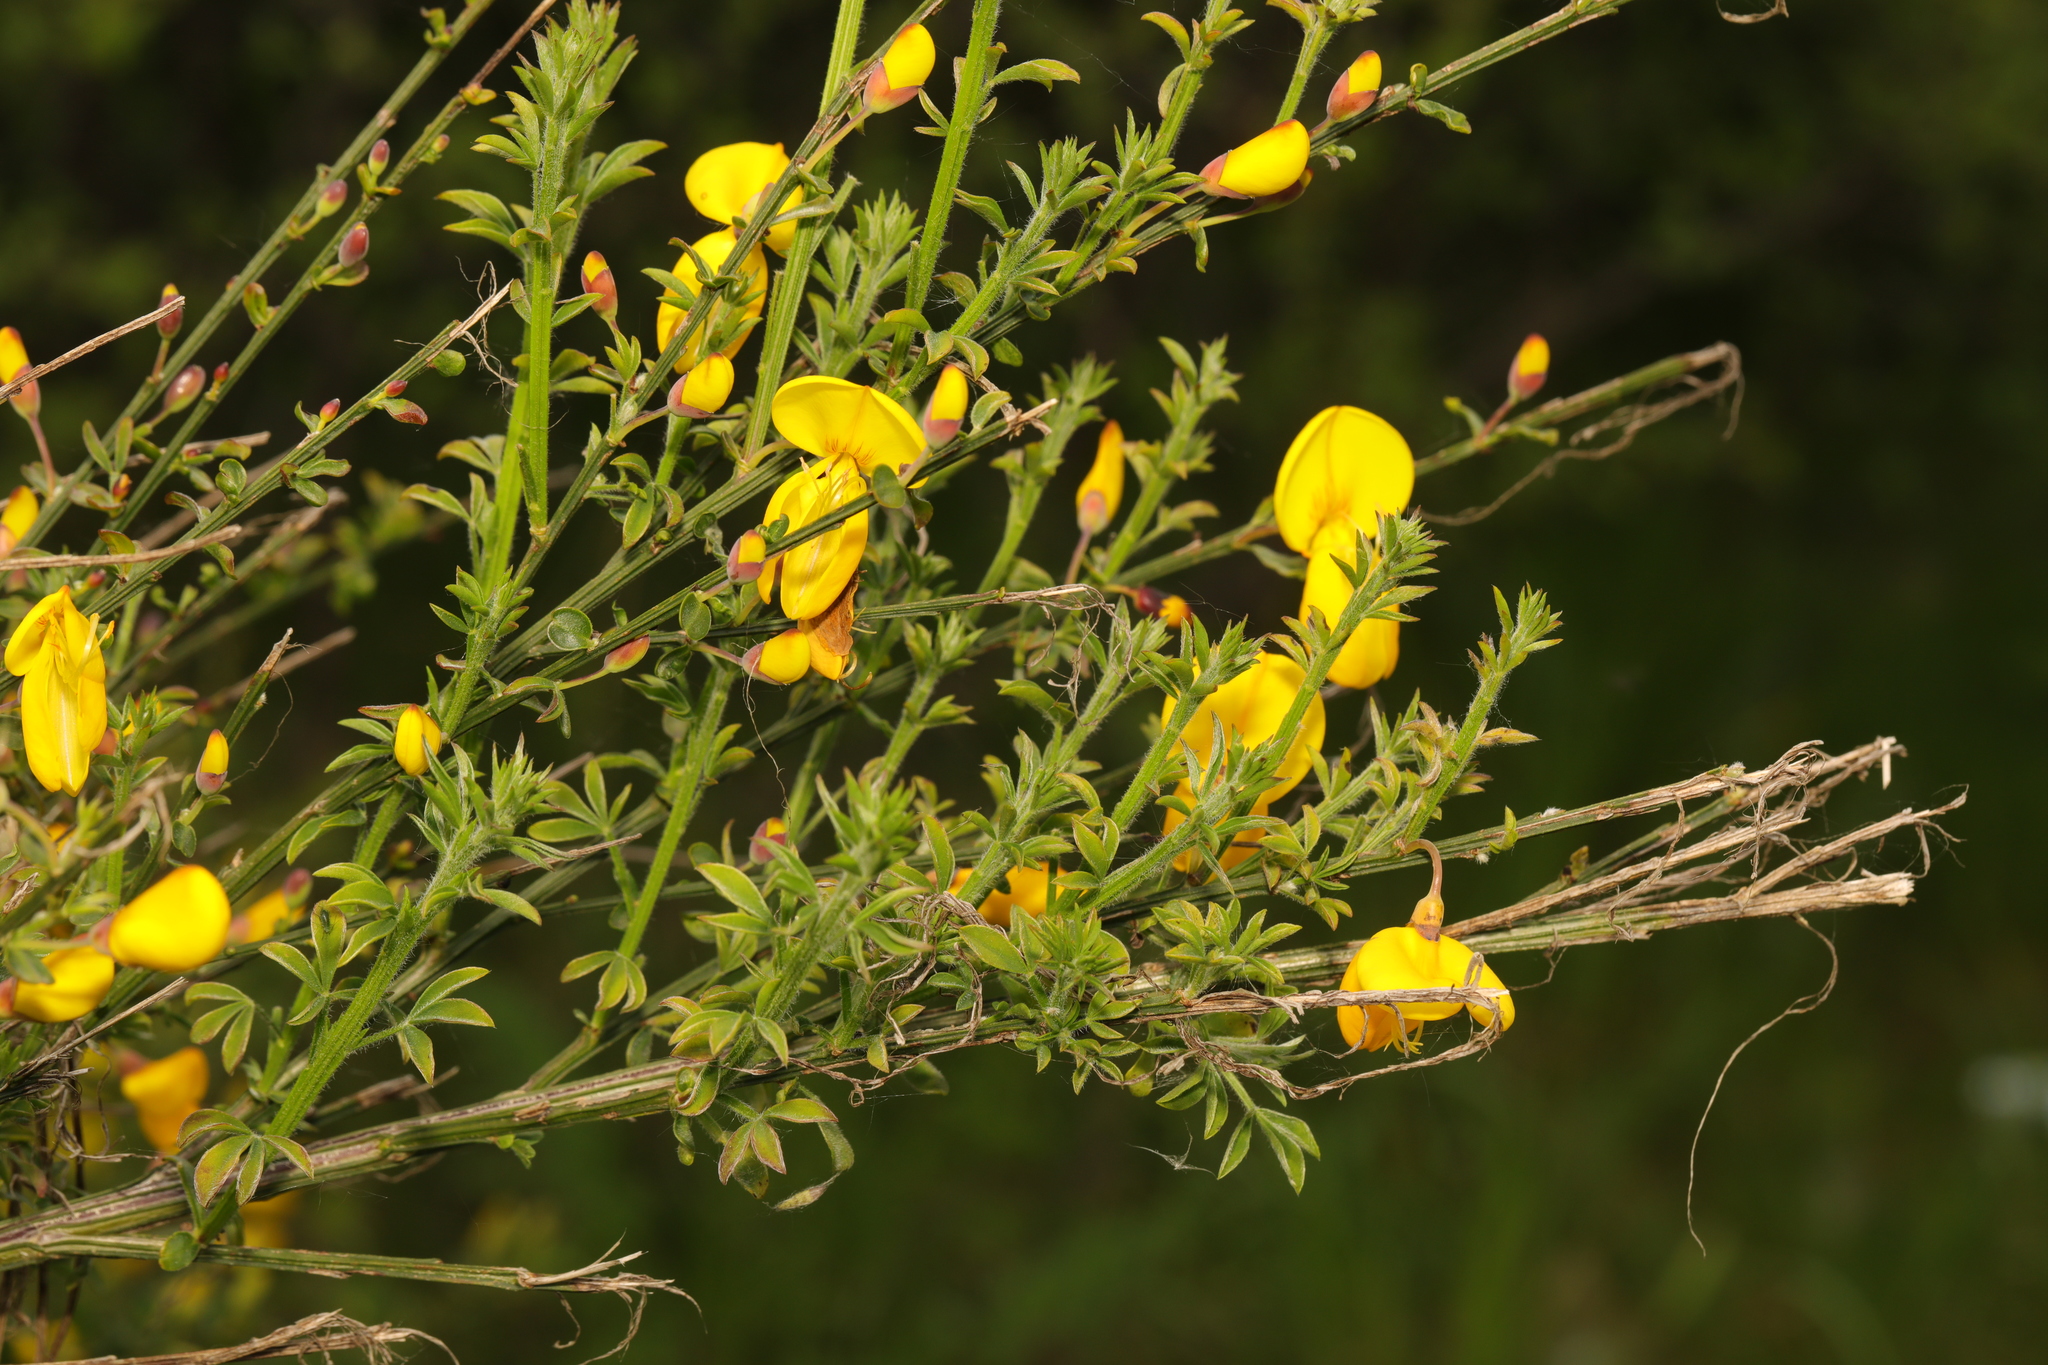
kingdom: Plantae
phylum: Tracheophyta
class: Magnoliopsida
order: Fabales
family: Fabaceae
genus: Cytisus
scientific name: Cytisus scoparius
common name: Scotch broom
